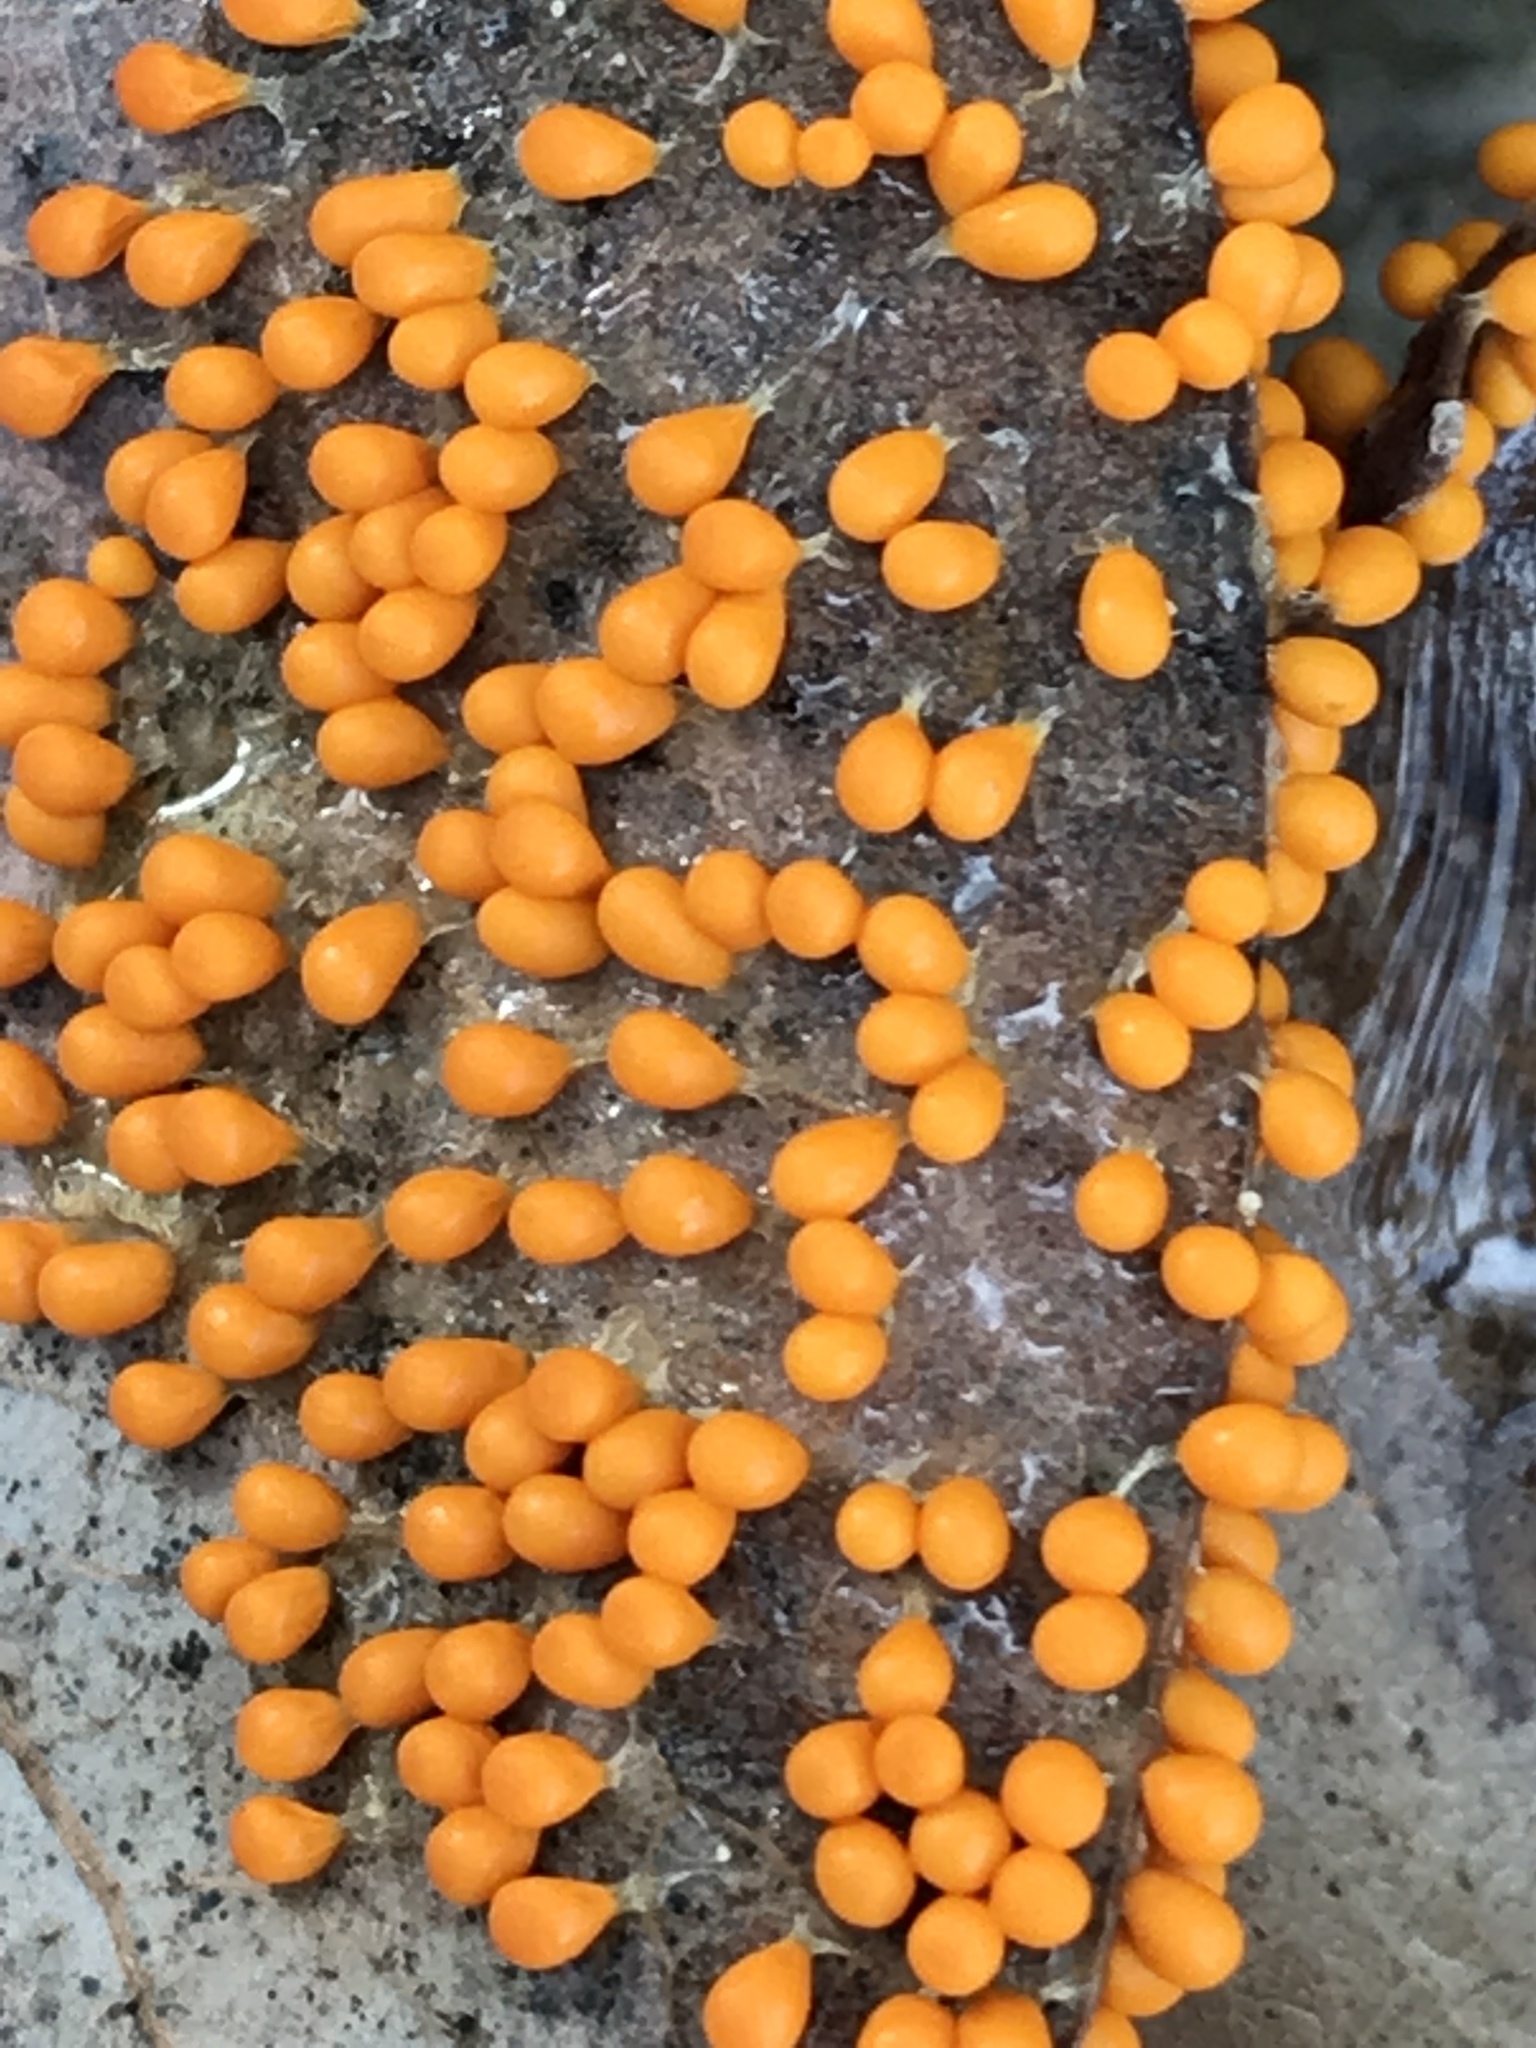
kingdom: Protozoa
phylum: Mycetozoa
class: Myxomycetes
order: Physarales
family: Physaraceae
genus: Leocarpus
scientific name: Leocarpus fragilis
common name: Insect-egg slime
